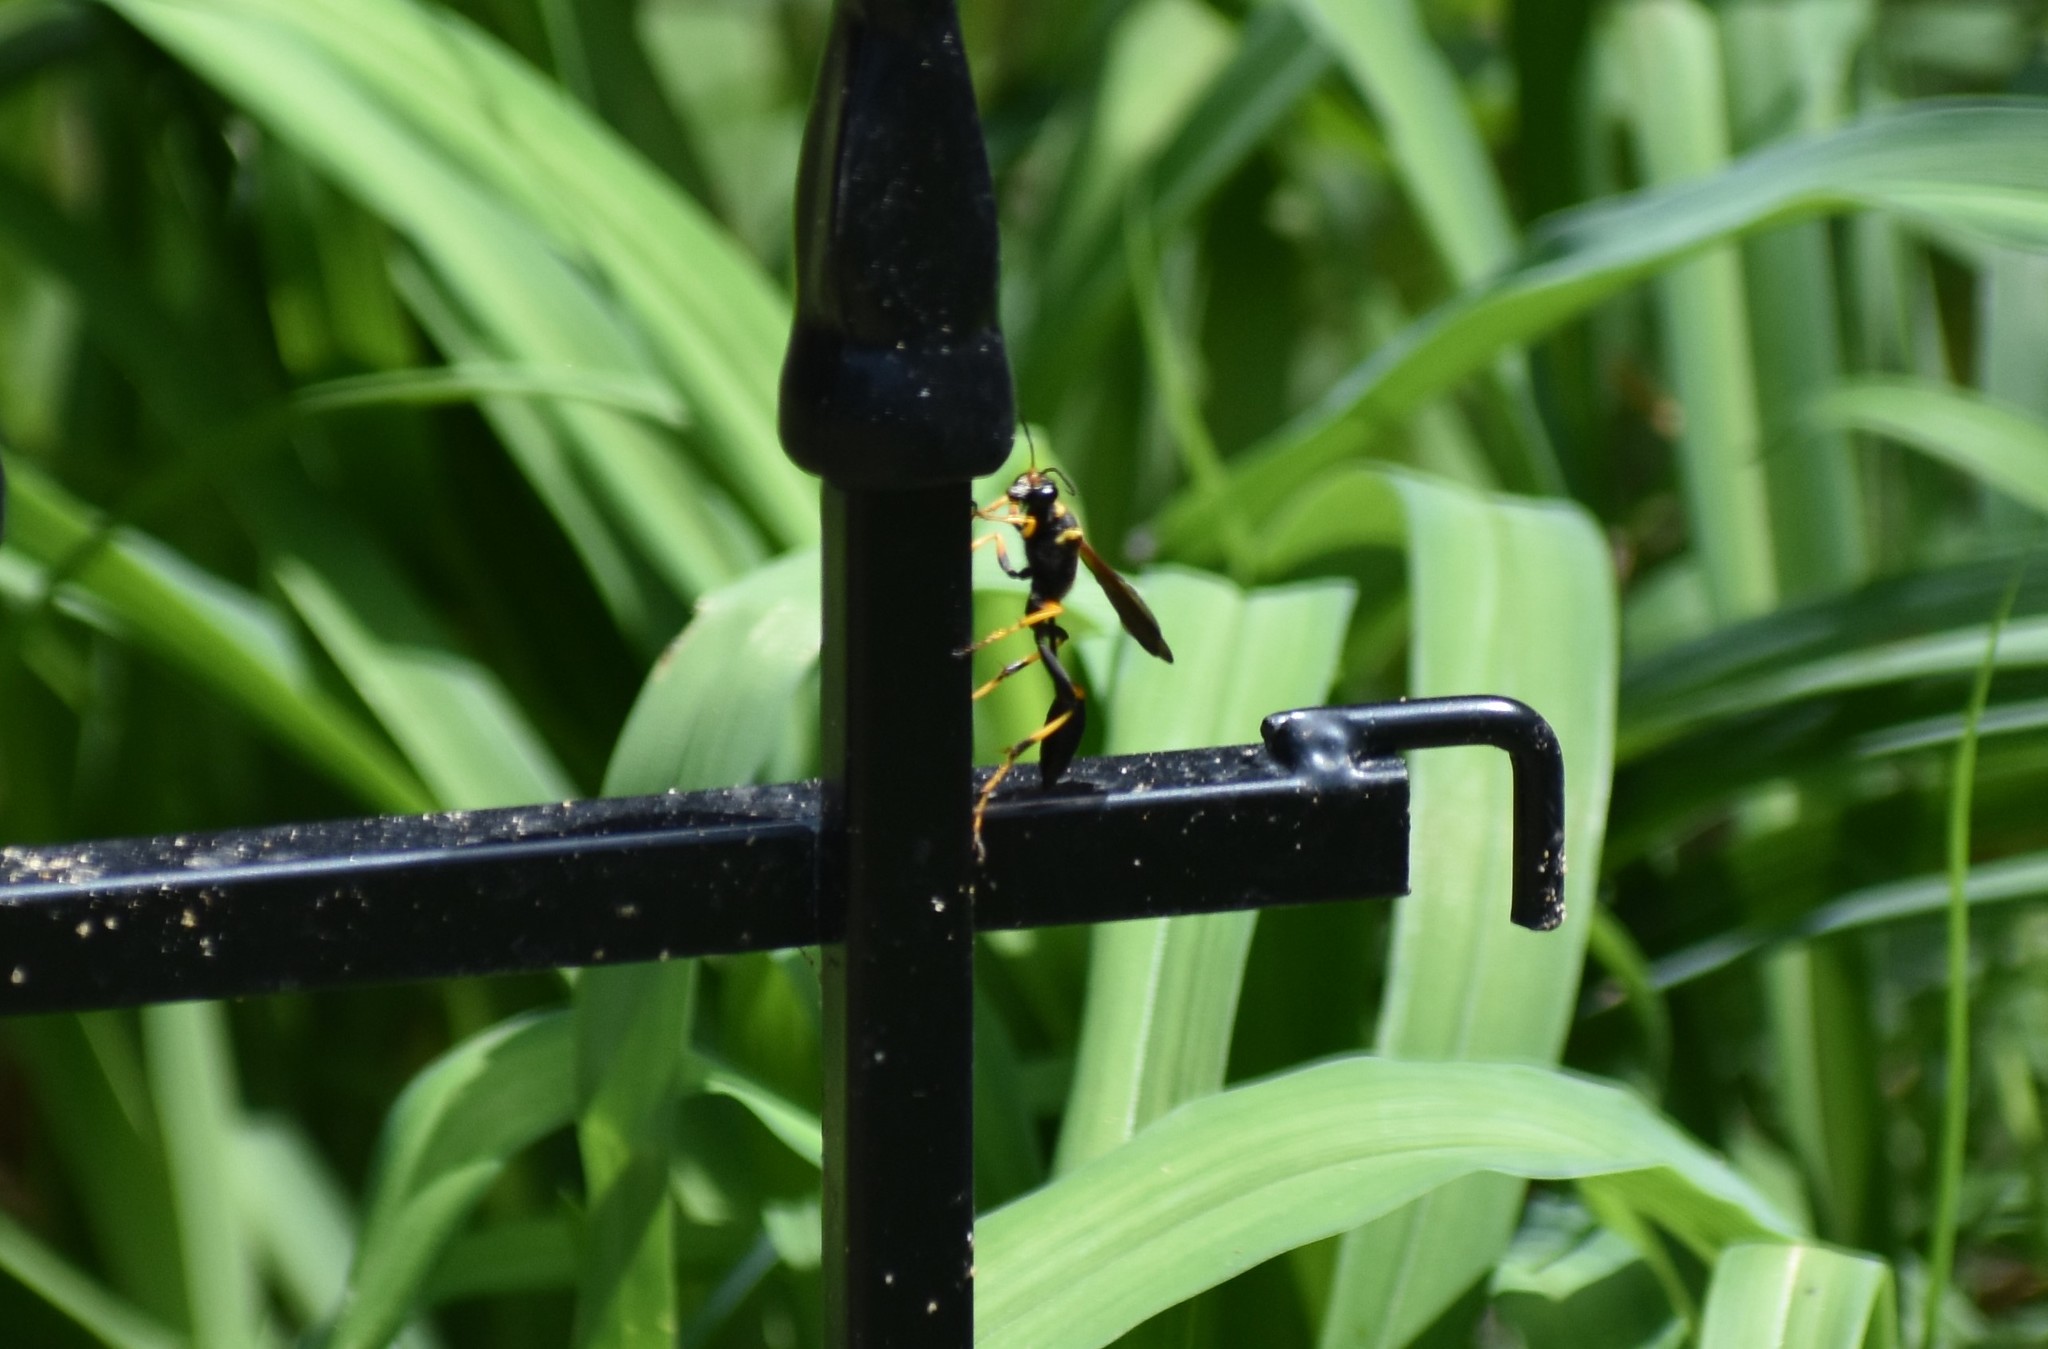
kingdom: Animalia
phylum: Arthropoda
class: Insecta
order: Hymenoptera
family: Sphecidae
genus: Sceliphron
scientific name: Sceliphron caementarium
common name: Mud dauber
